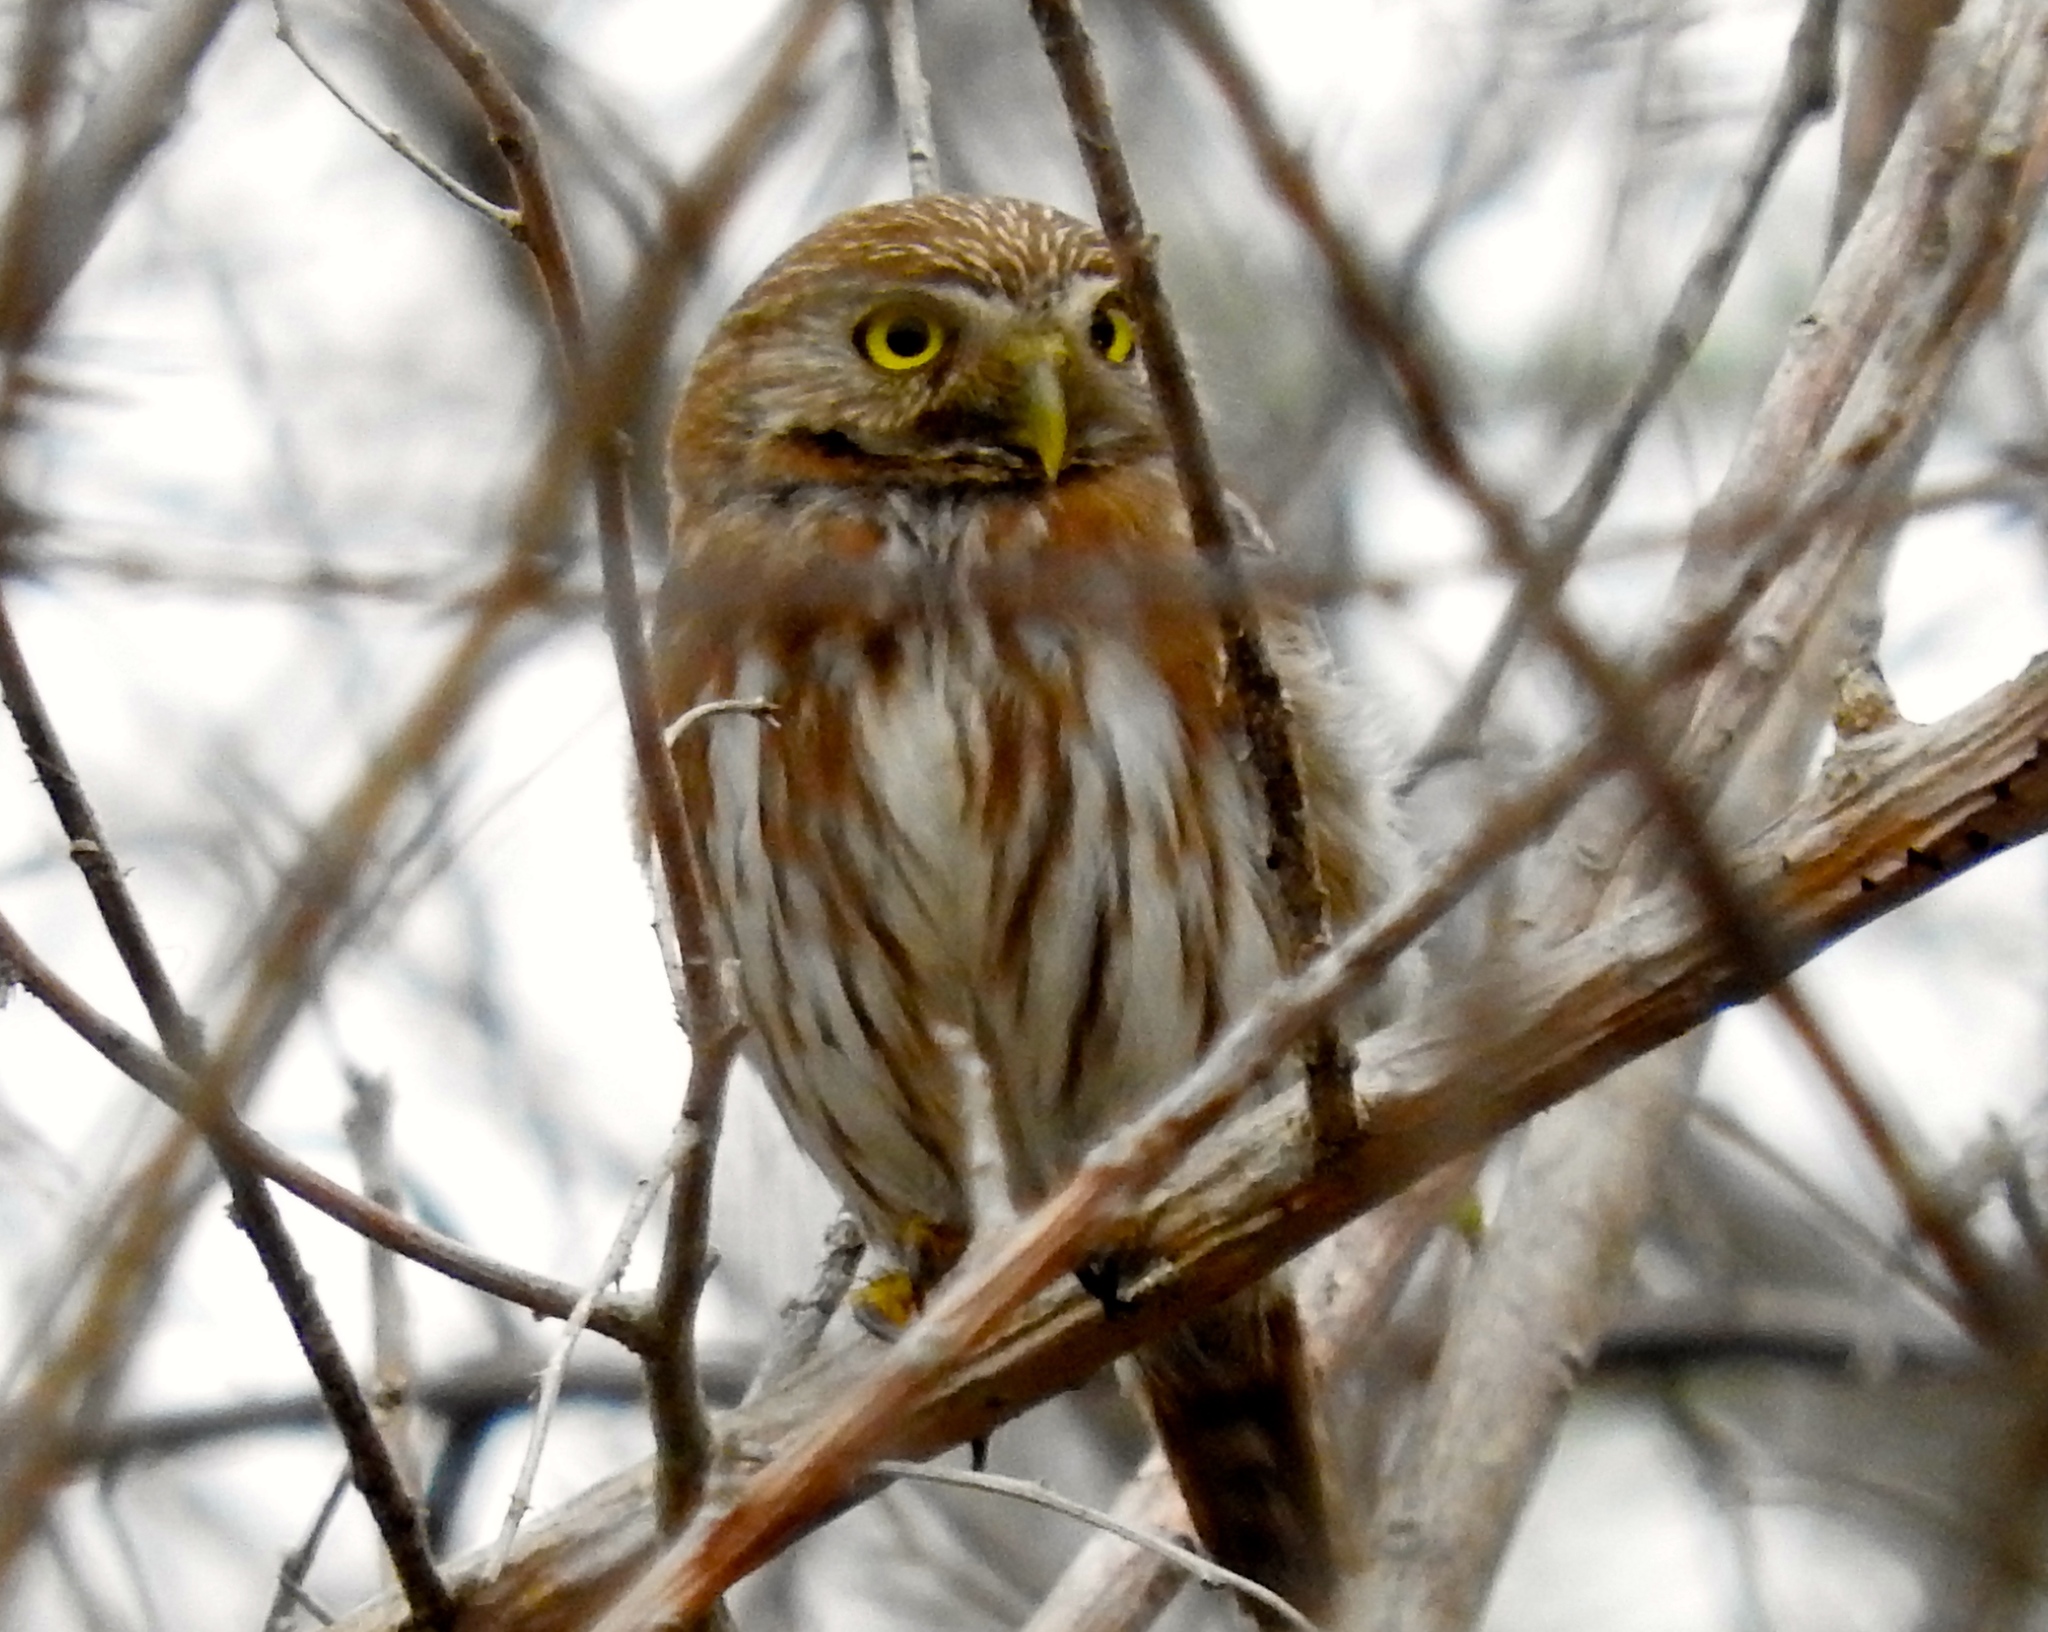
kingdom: Animalia
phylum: Chordata
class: Aves
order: Strigiformes
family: Strigidae
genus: Glaucidium
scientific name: Glaucidium brasilianum
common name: Ferruginous pygmy-owl
